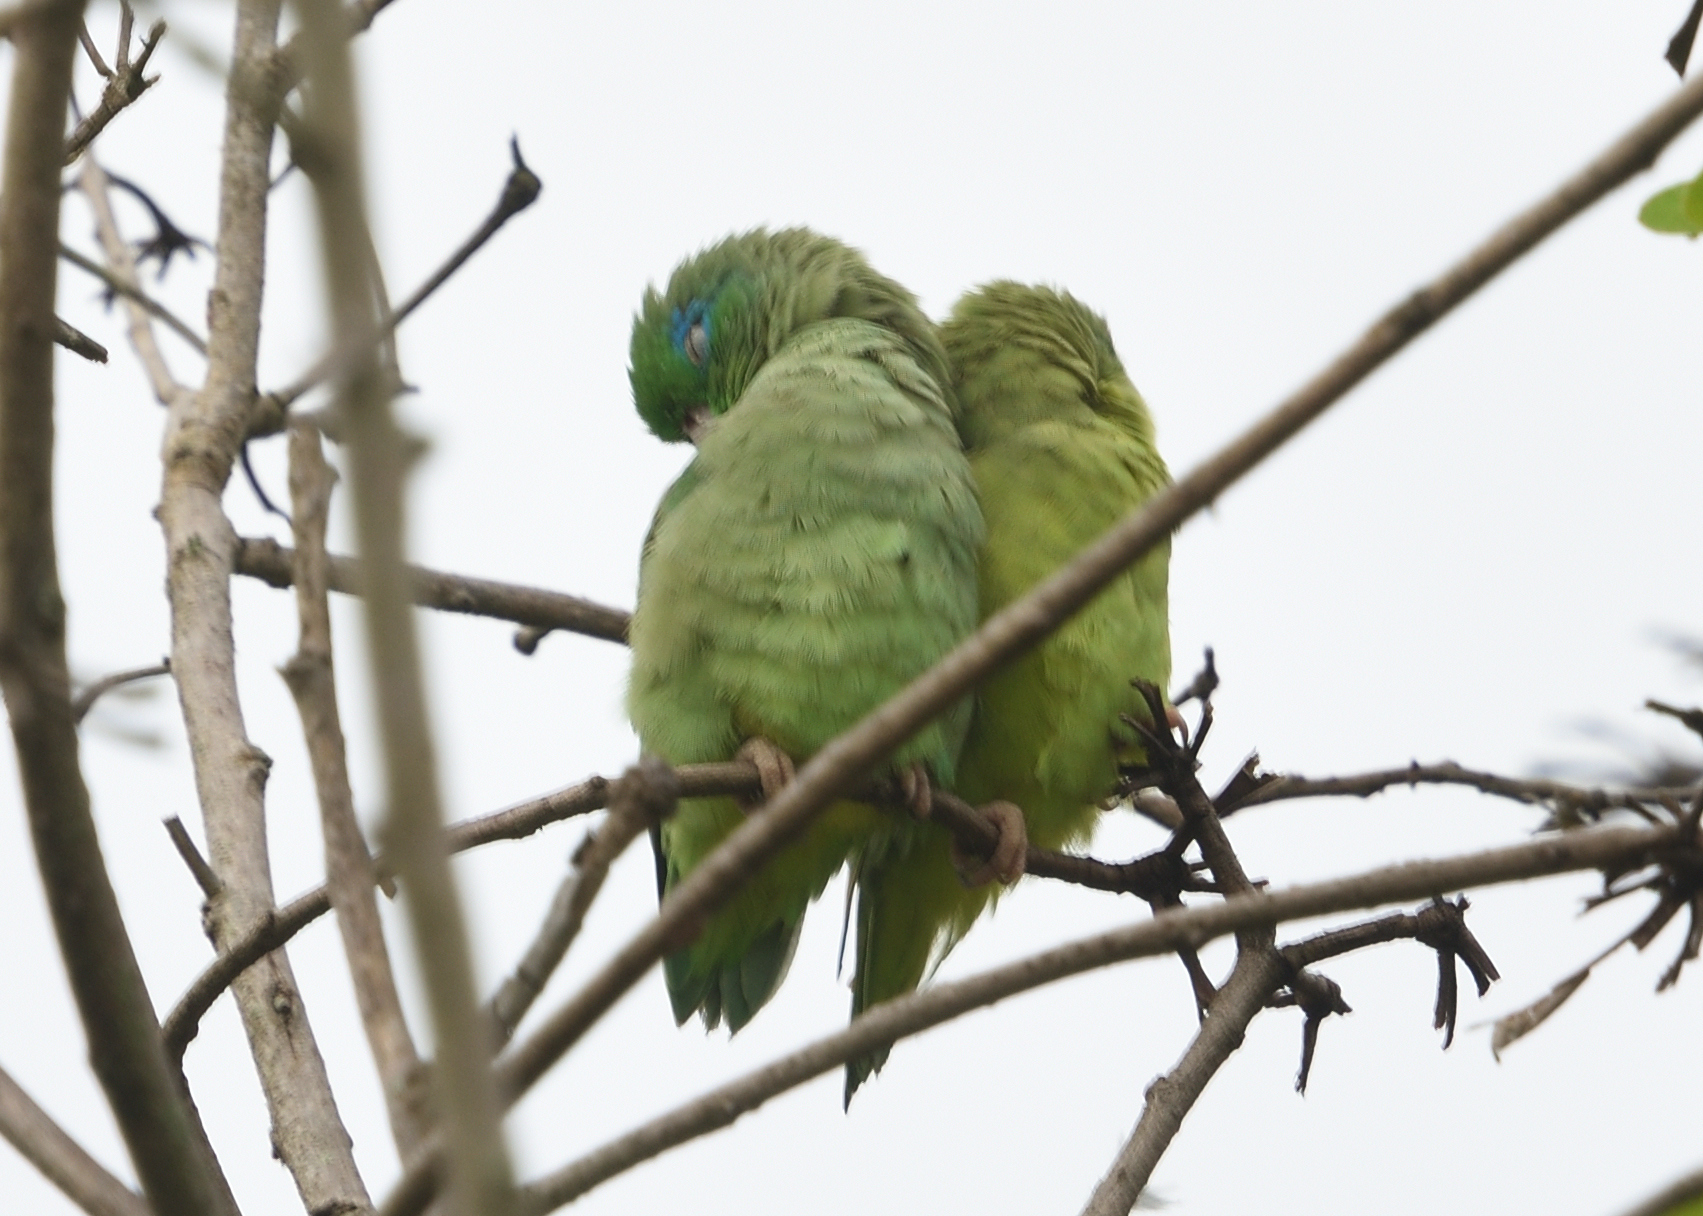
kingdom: Animalia
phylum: Chordata
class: Aves
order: Psittaciformes
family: Psittacidae
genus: Forpus
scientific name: Forpus conspicillatus
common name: Spectacled parrotlet
